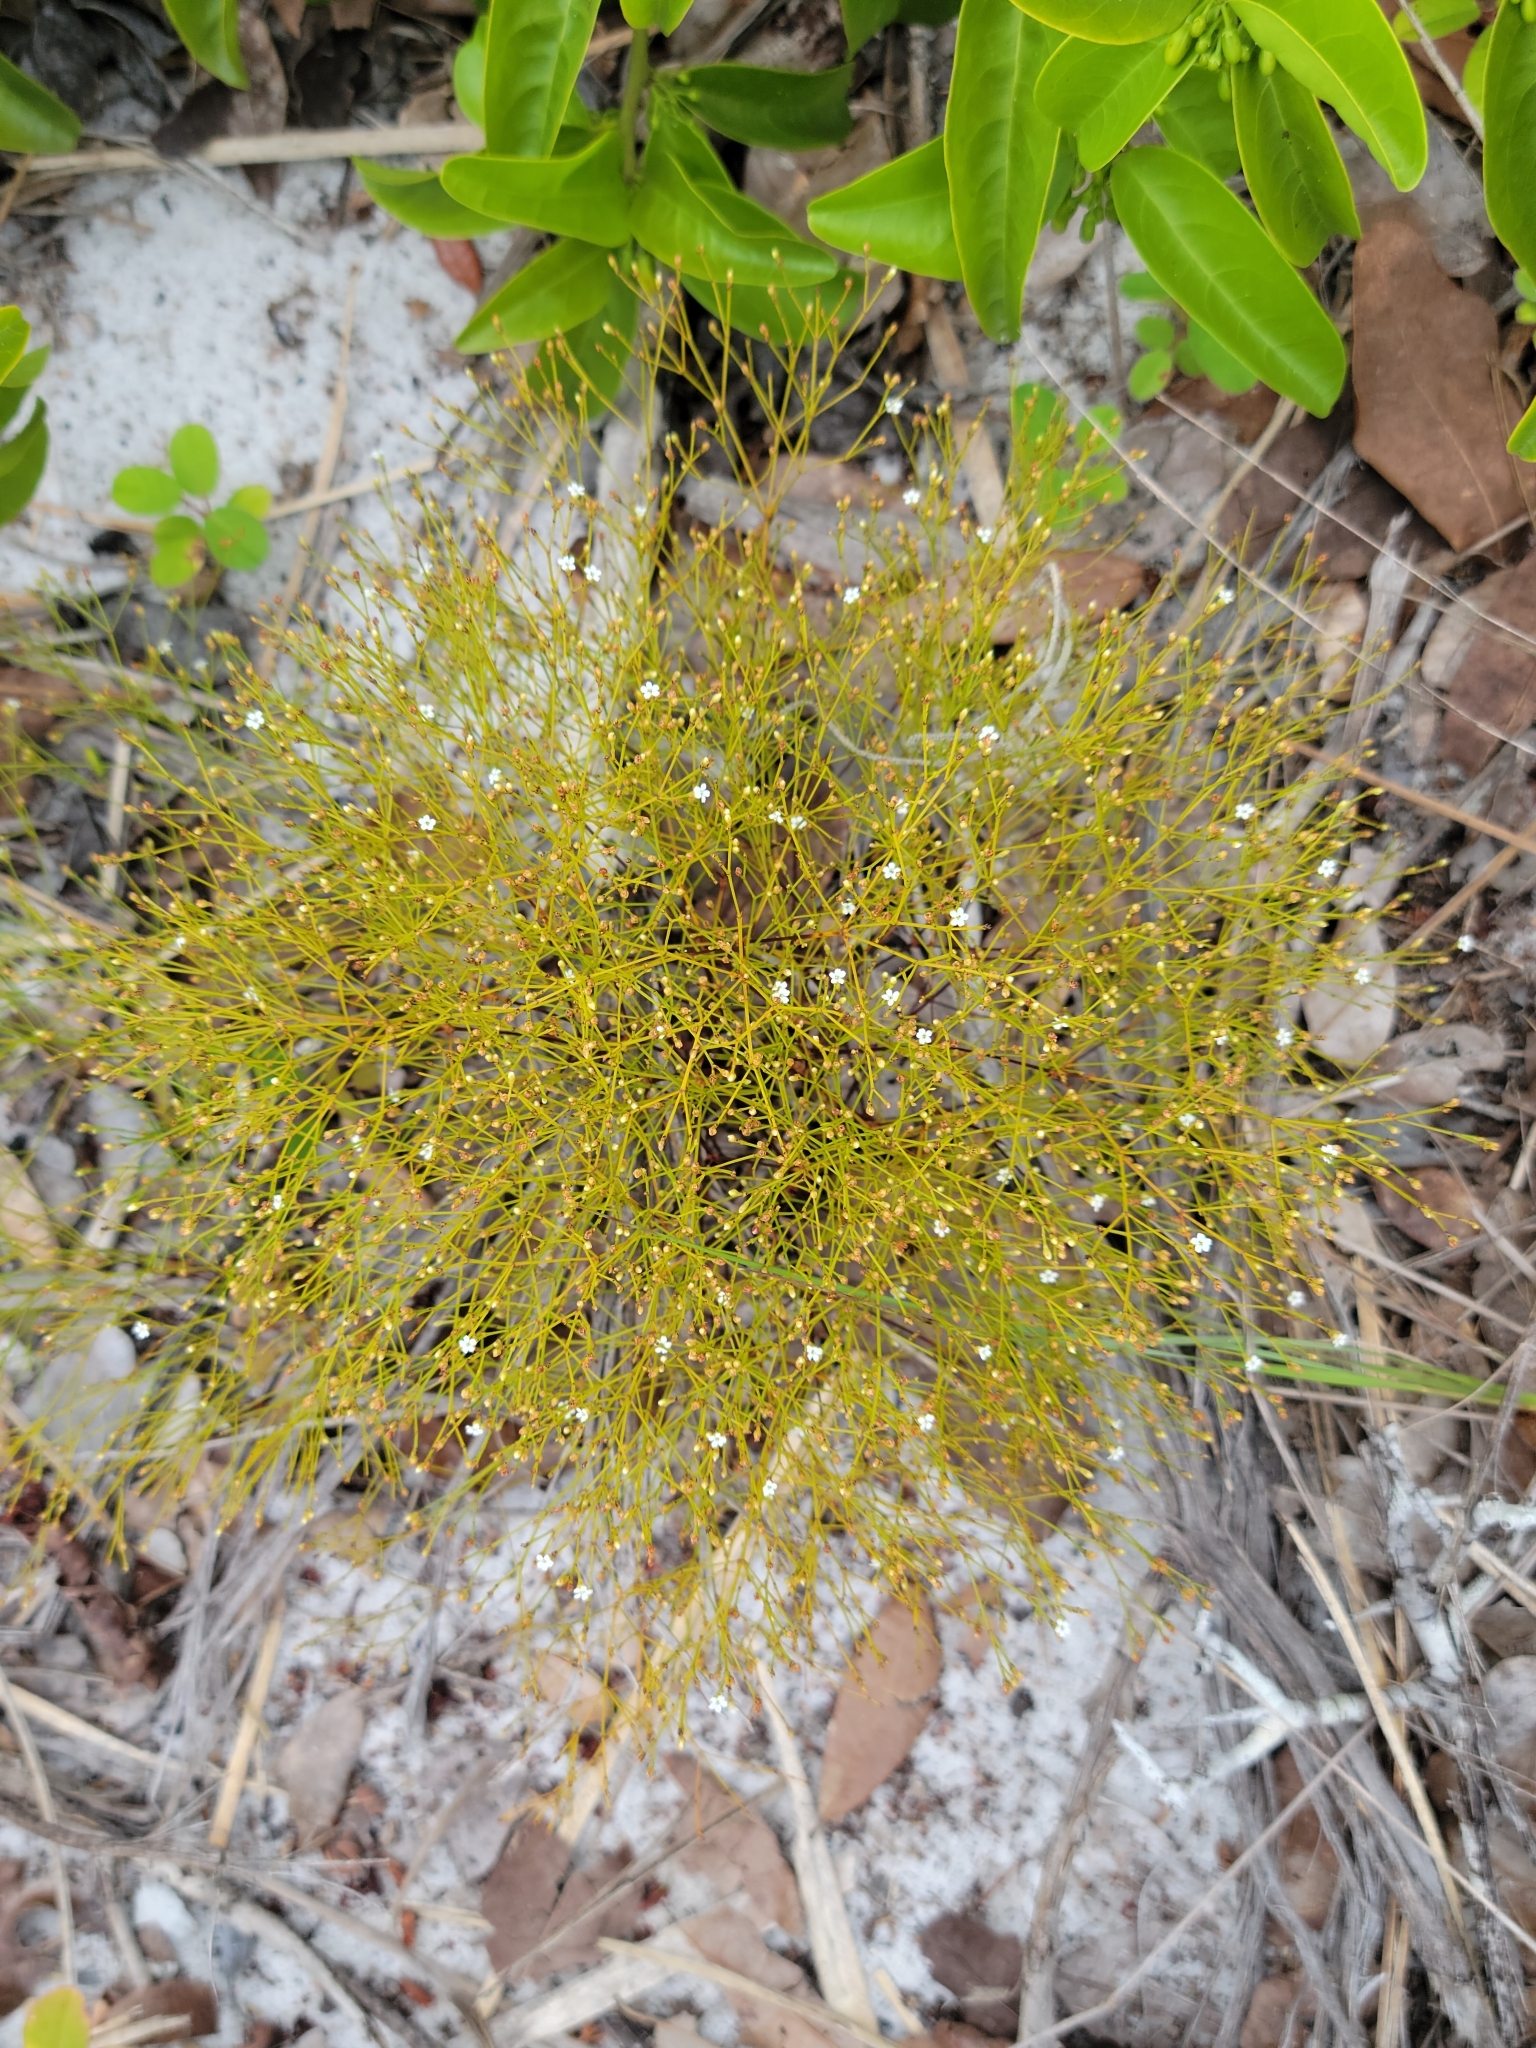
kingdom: Plantae
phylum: Tracheophyta
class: Magnoliopsida
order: Caryophyllales
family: Caryophyllaceae
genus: Stipulicida
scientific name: Stipulicida setacea
